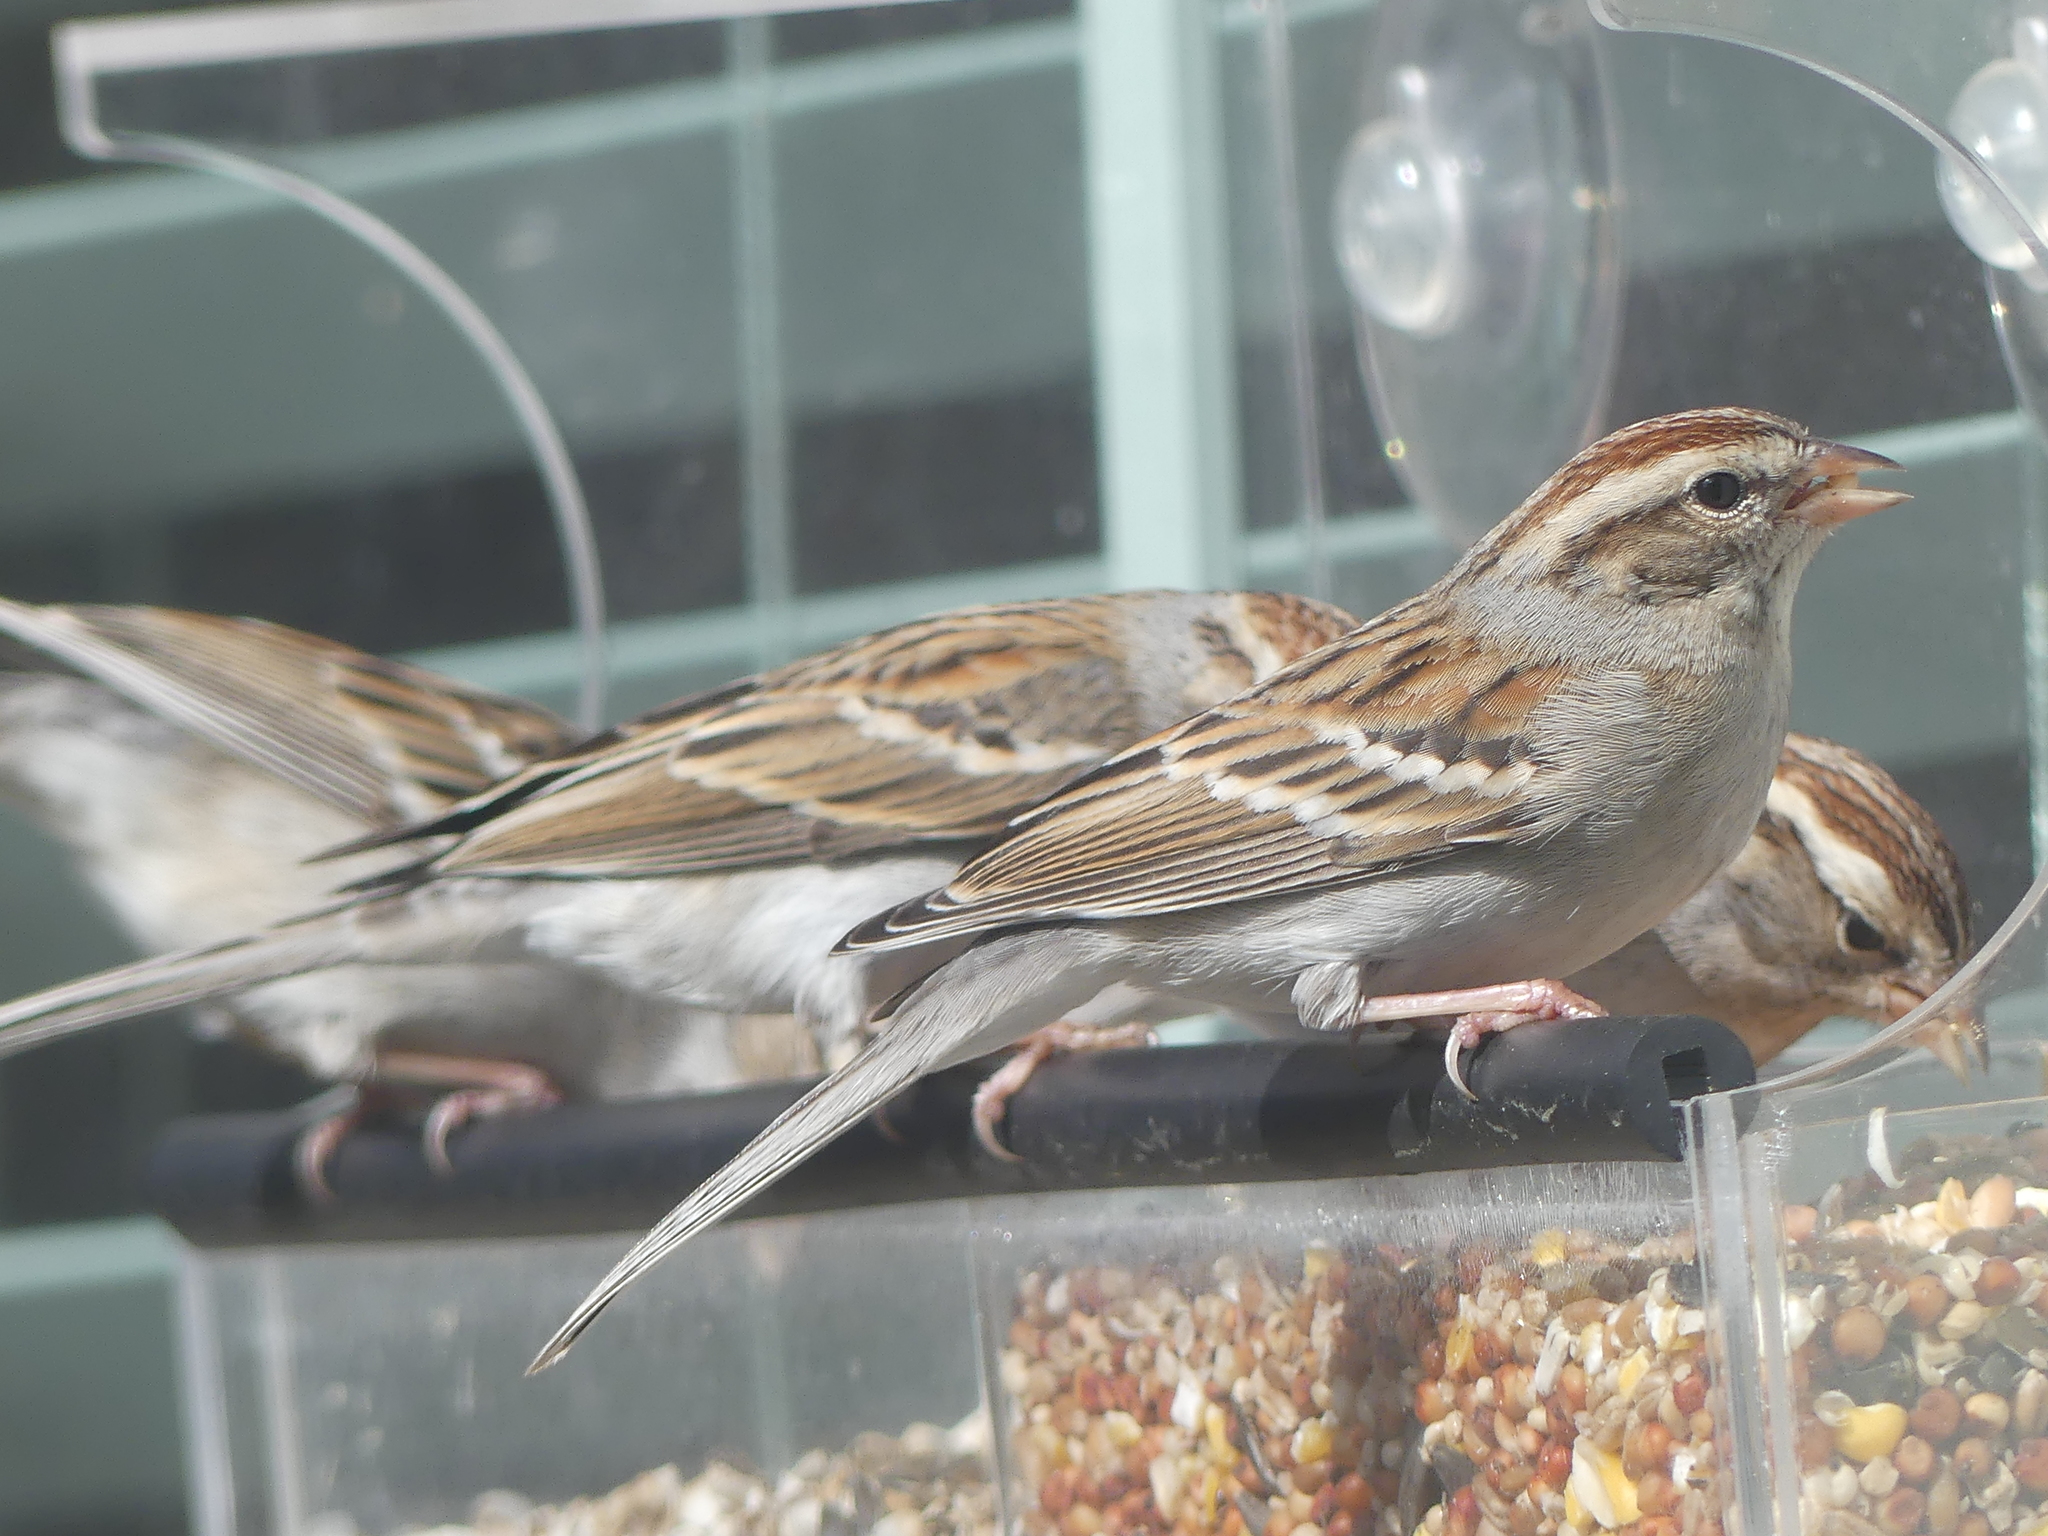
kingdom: Animalia
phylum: Chordata
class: Aves
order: Passeriformes
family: Passerellidae
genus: Spizella
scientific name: Spizella passerina
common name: Chipping sparrow
